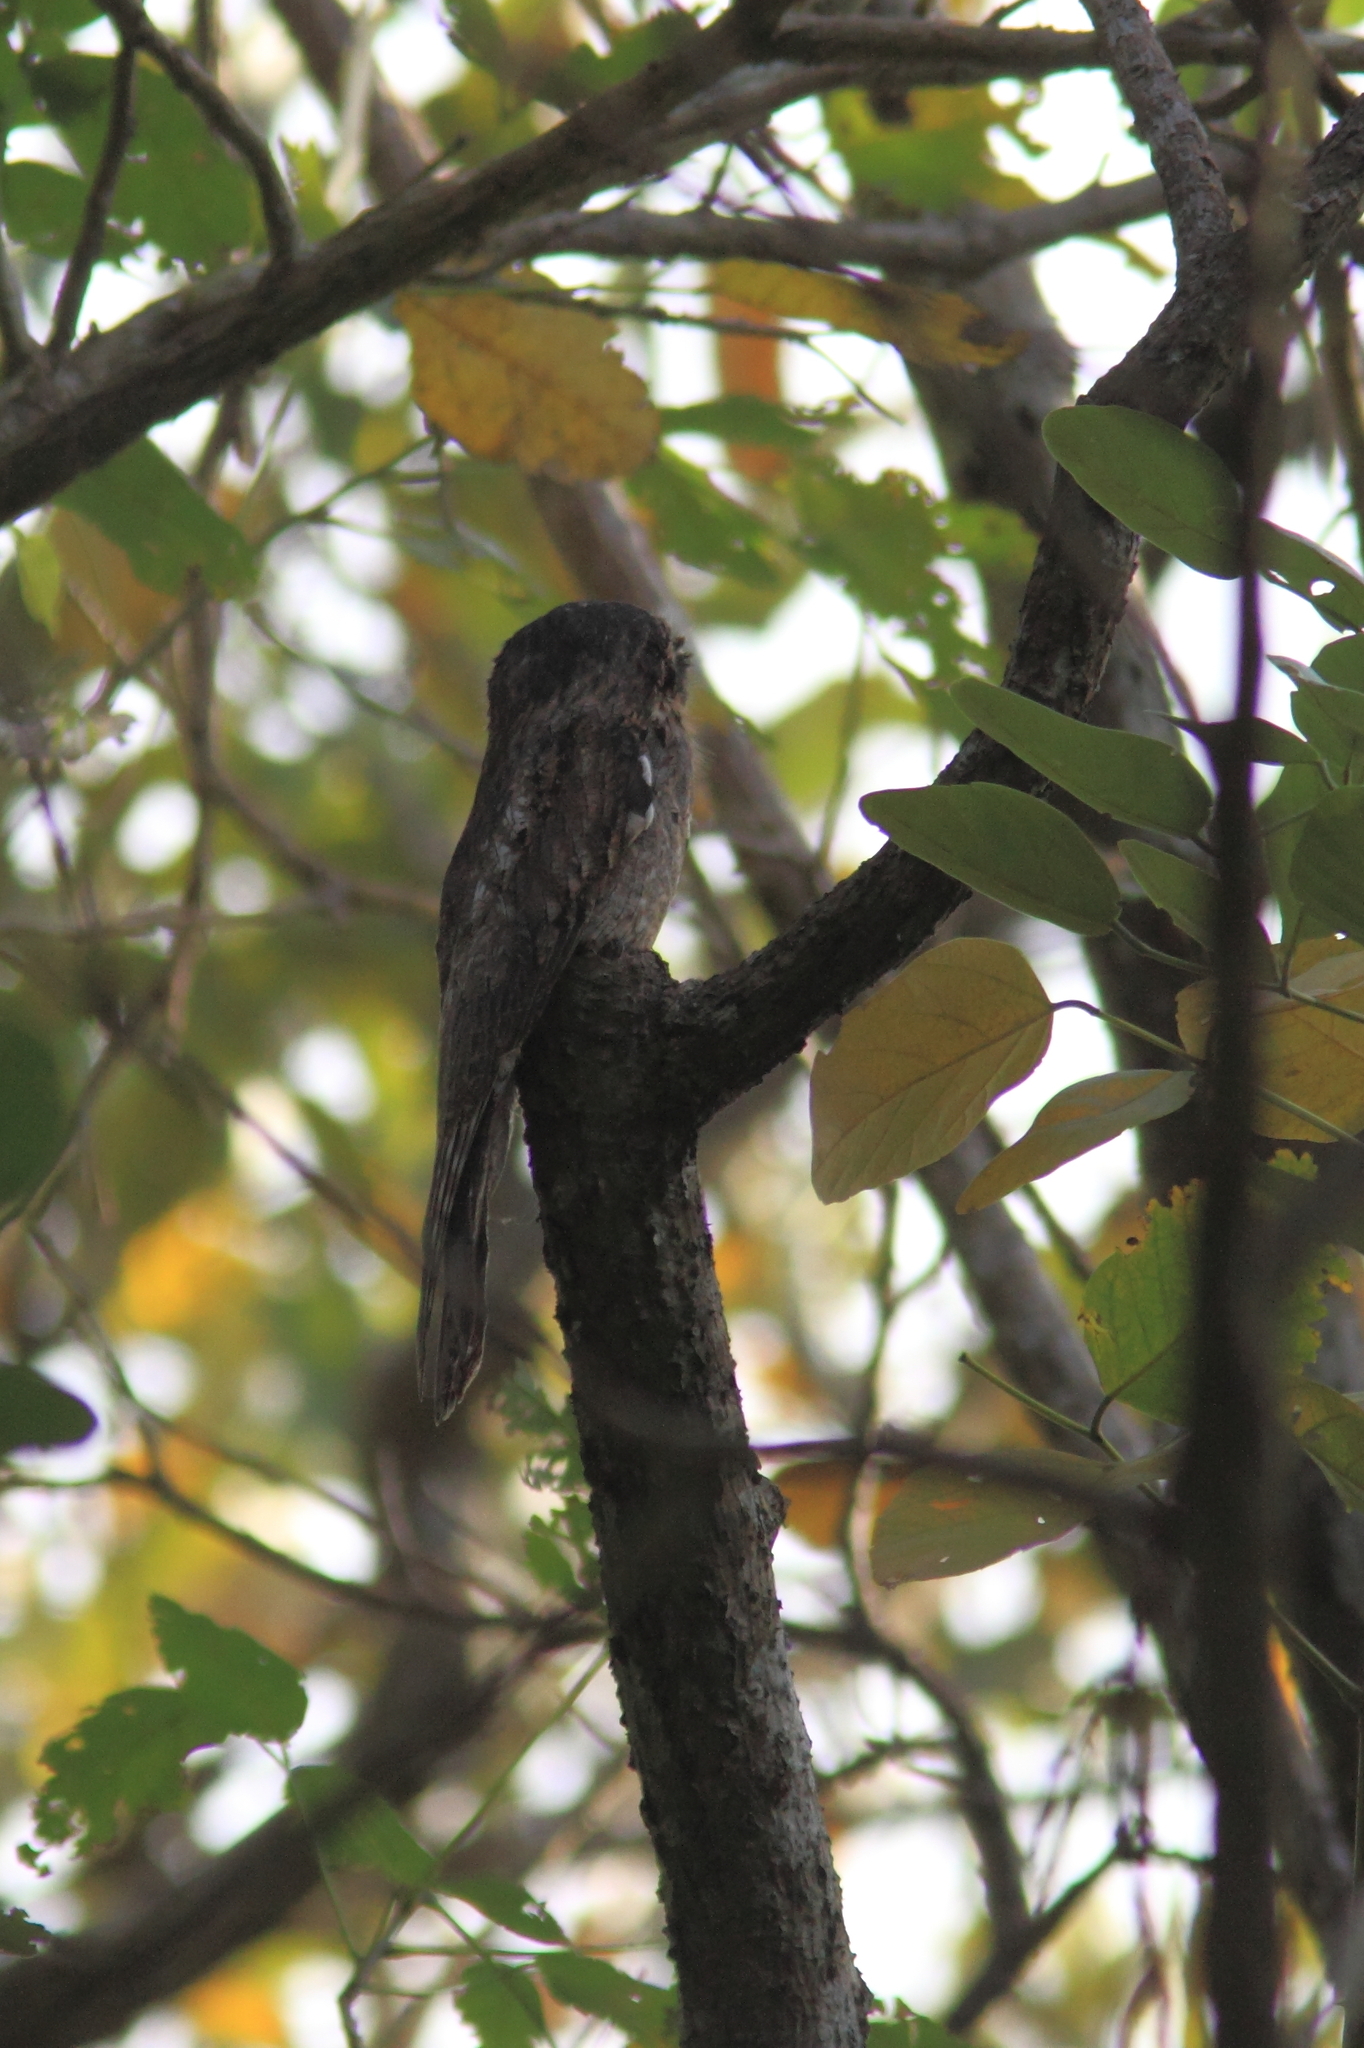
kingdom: Animalia
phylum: Chordata
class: Aves
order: Nyctibiiformes
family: Nyctibiidae
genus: Nyctibius
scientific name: Nyctibius griseus
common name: Common potoo
